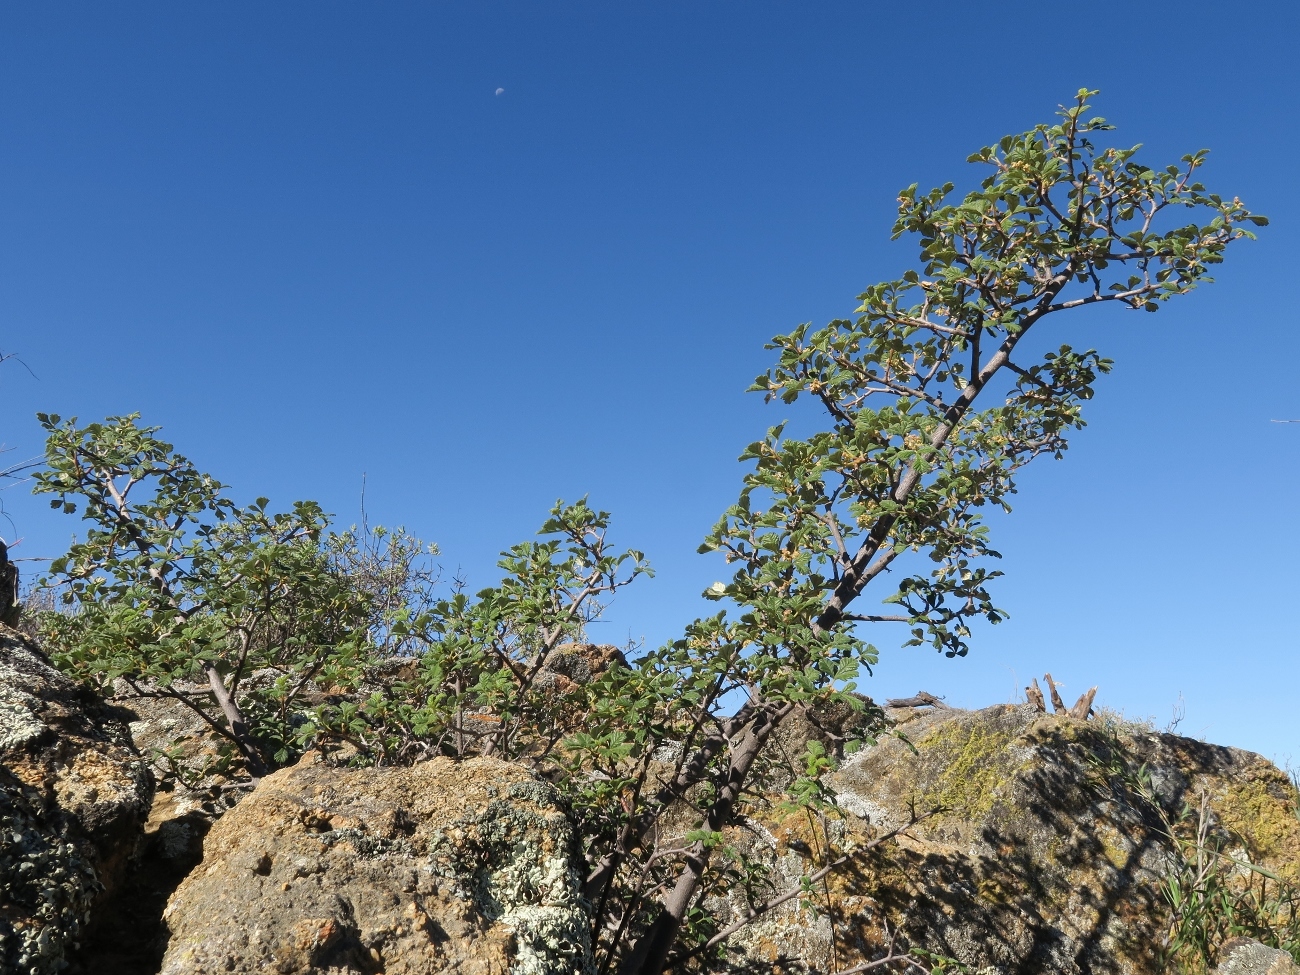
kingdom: Plantae
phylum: Tracheophyta
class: Magnoliopsida
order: Sapindales
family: Anacardiaceae
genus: Searsia
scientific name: Searsia incisa
